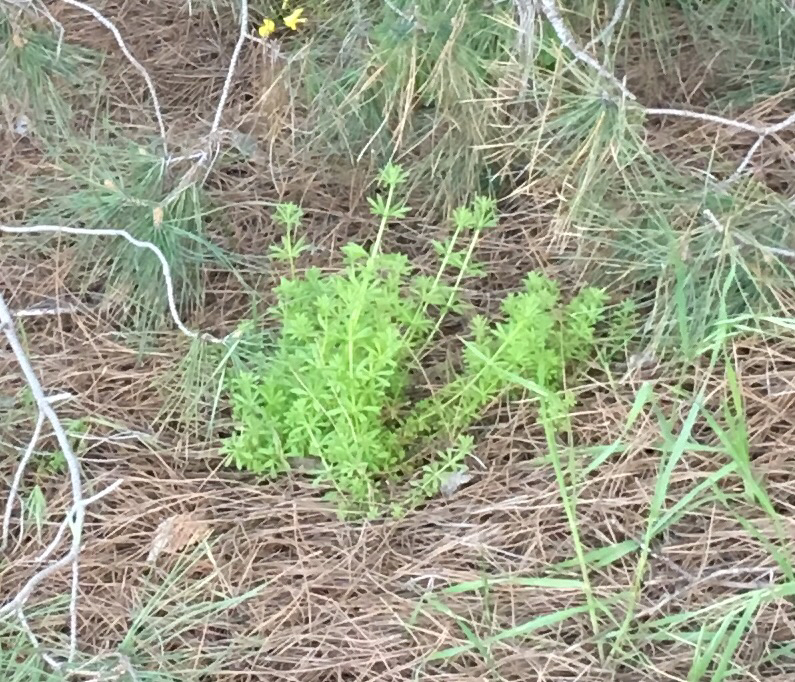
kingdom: Plantae
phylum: Tracheophyta
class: Magnoliopsida
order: Gentianales
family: Rubiaceae
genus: Galium
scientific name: Galium aparine
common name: Cleavers
